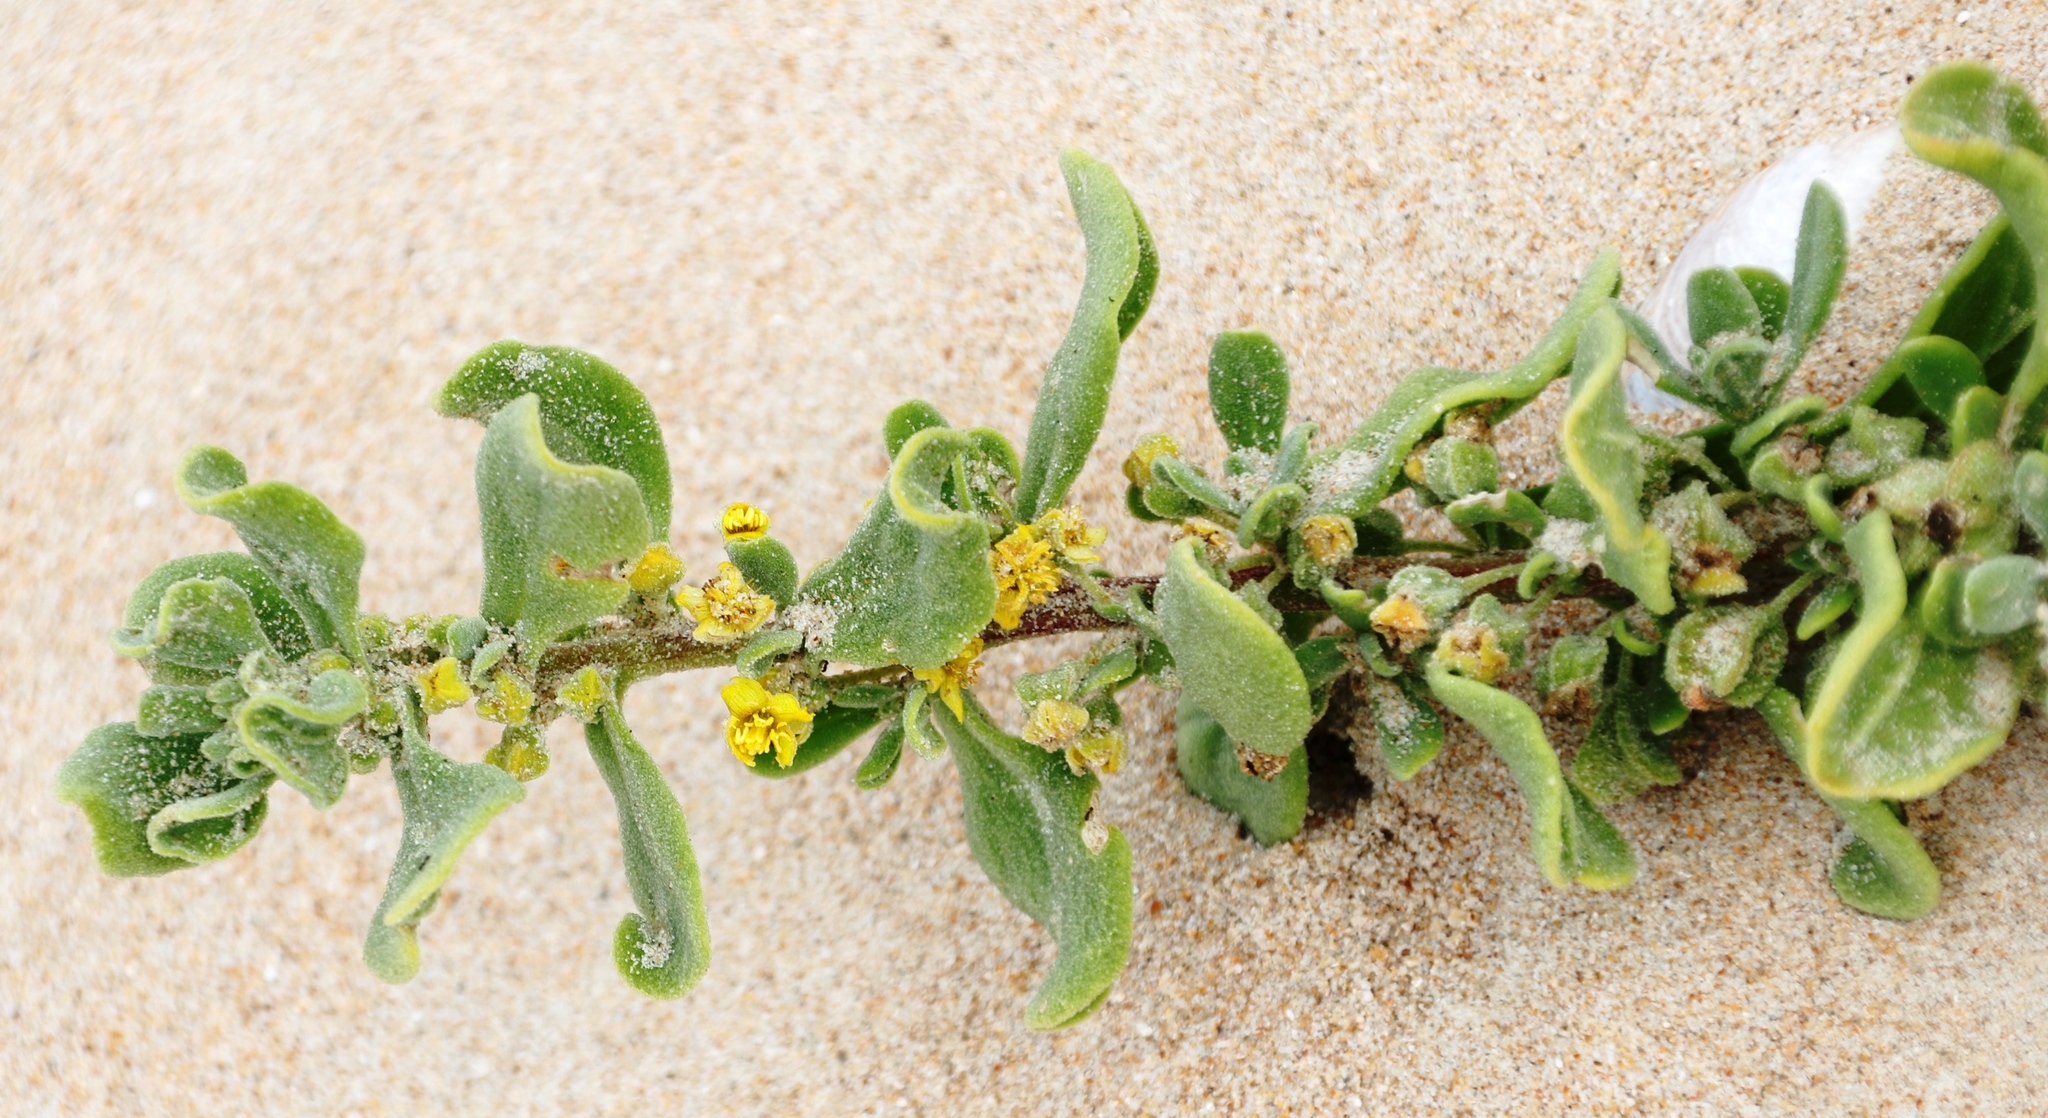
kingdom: Plantae
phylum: Tracheophyta
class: Magnoliopsida
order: Caryophyllales
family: Aizoaceae
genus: Tetragonia
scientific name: Tetragonia decumbens
